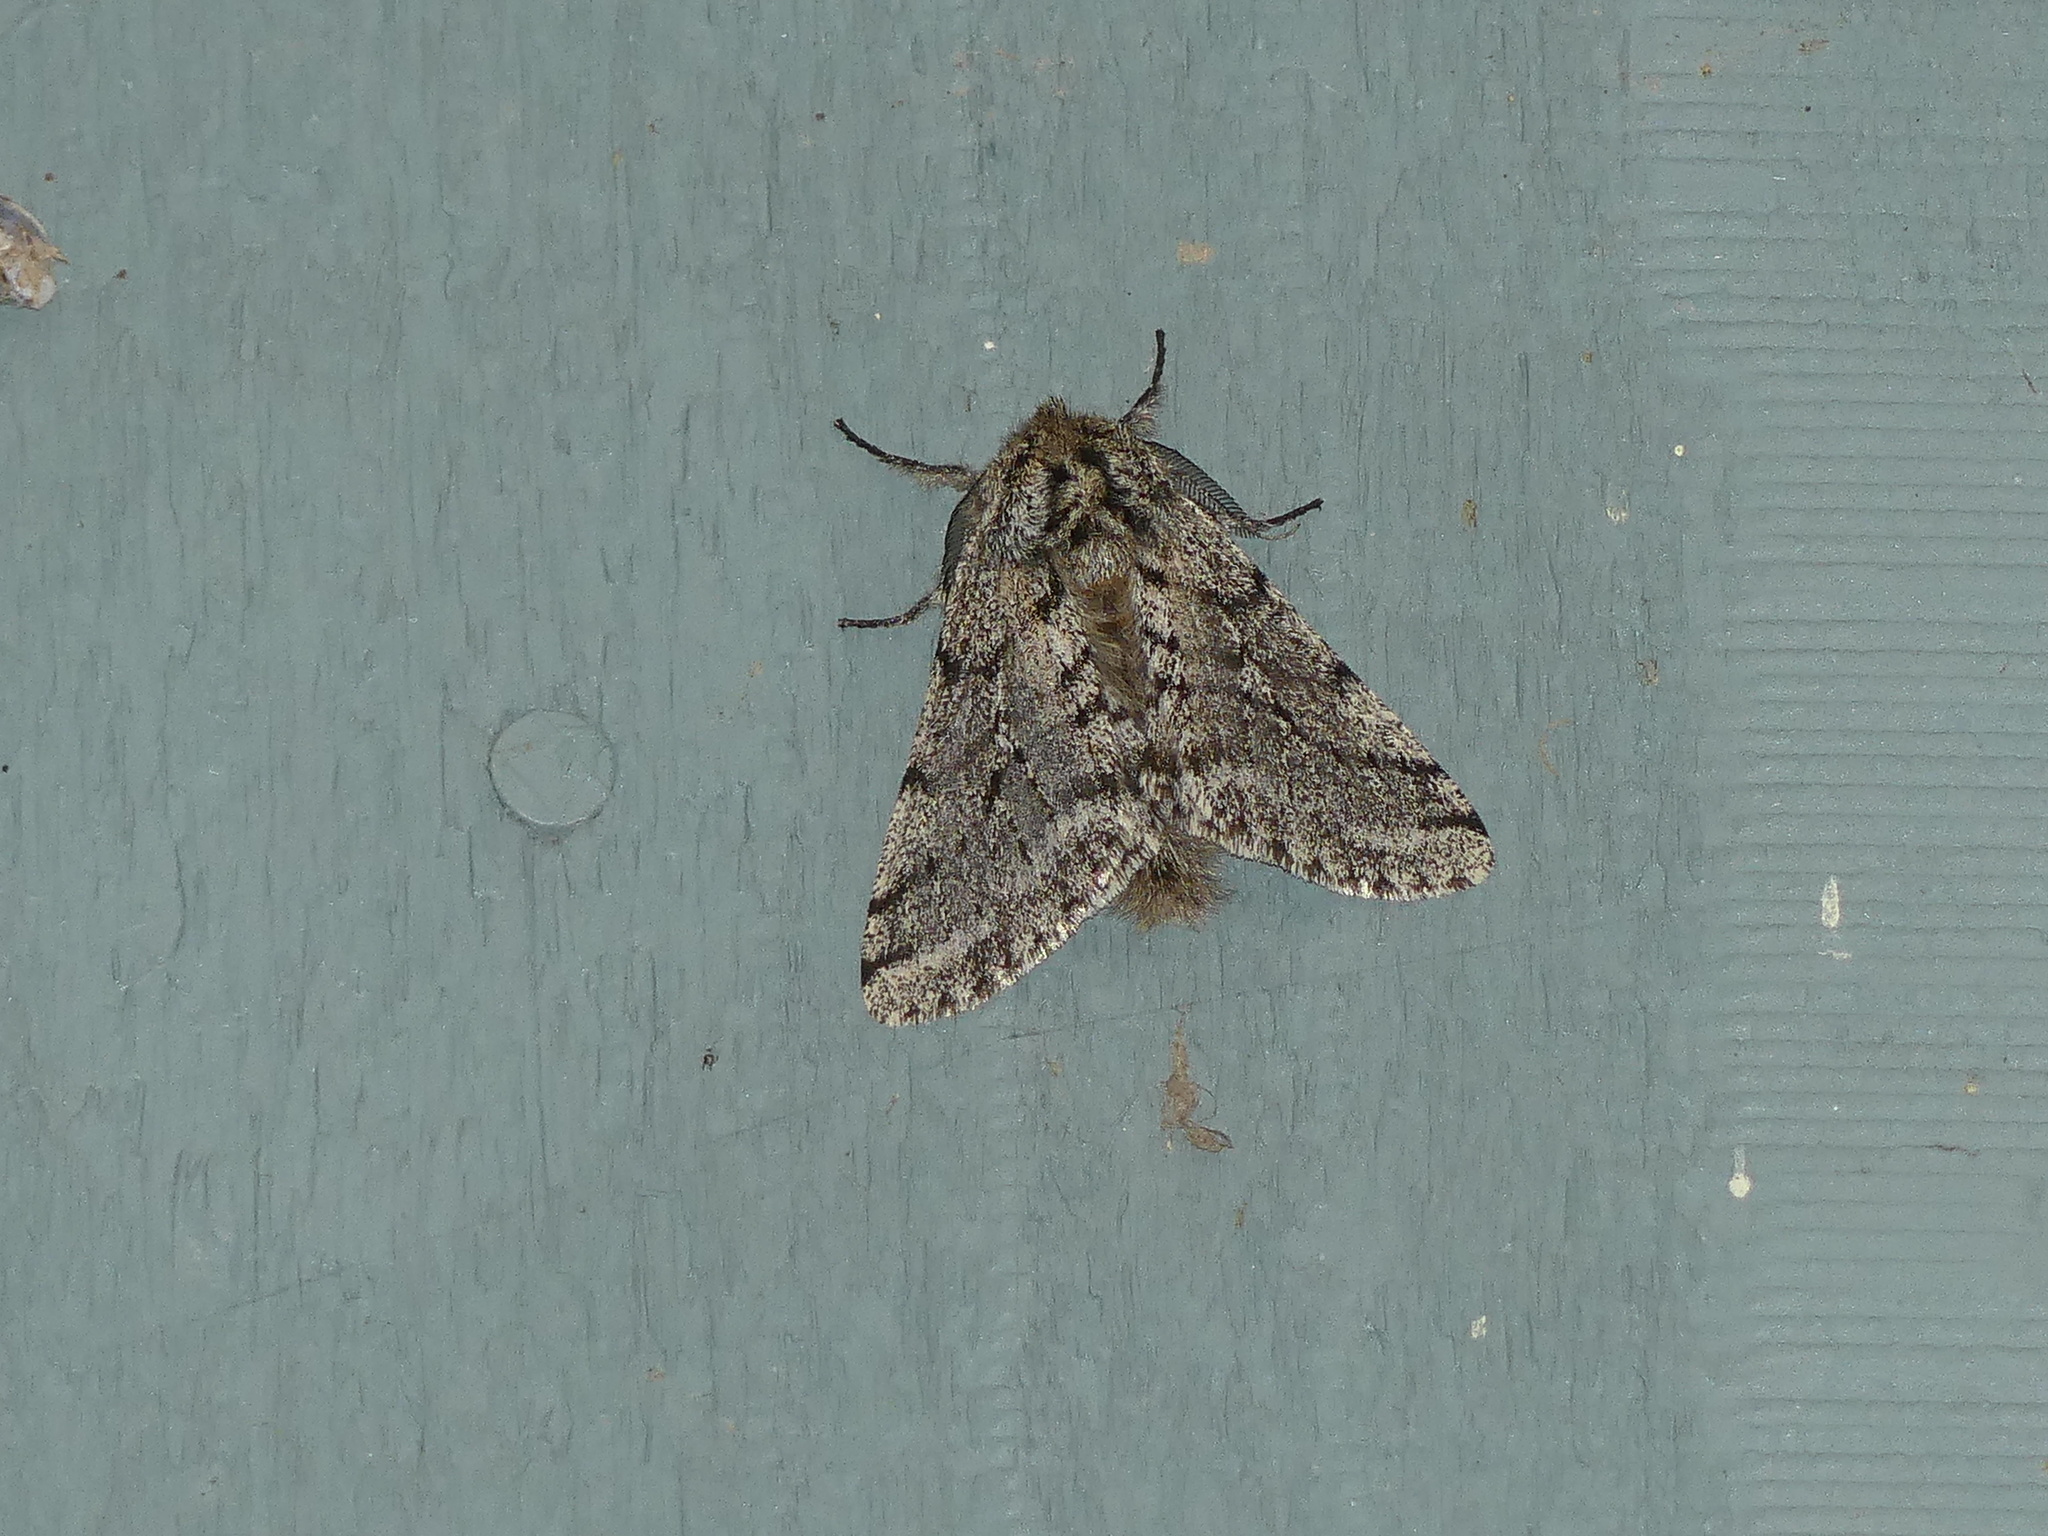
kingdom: Animalia
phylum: Arthropoda
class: Insecta
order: Lepidoptera
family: Geometridae
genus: Lycia
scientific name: Lycia ursaria
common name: Stout spanworm
